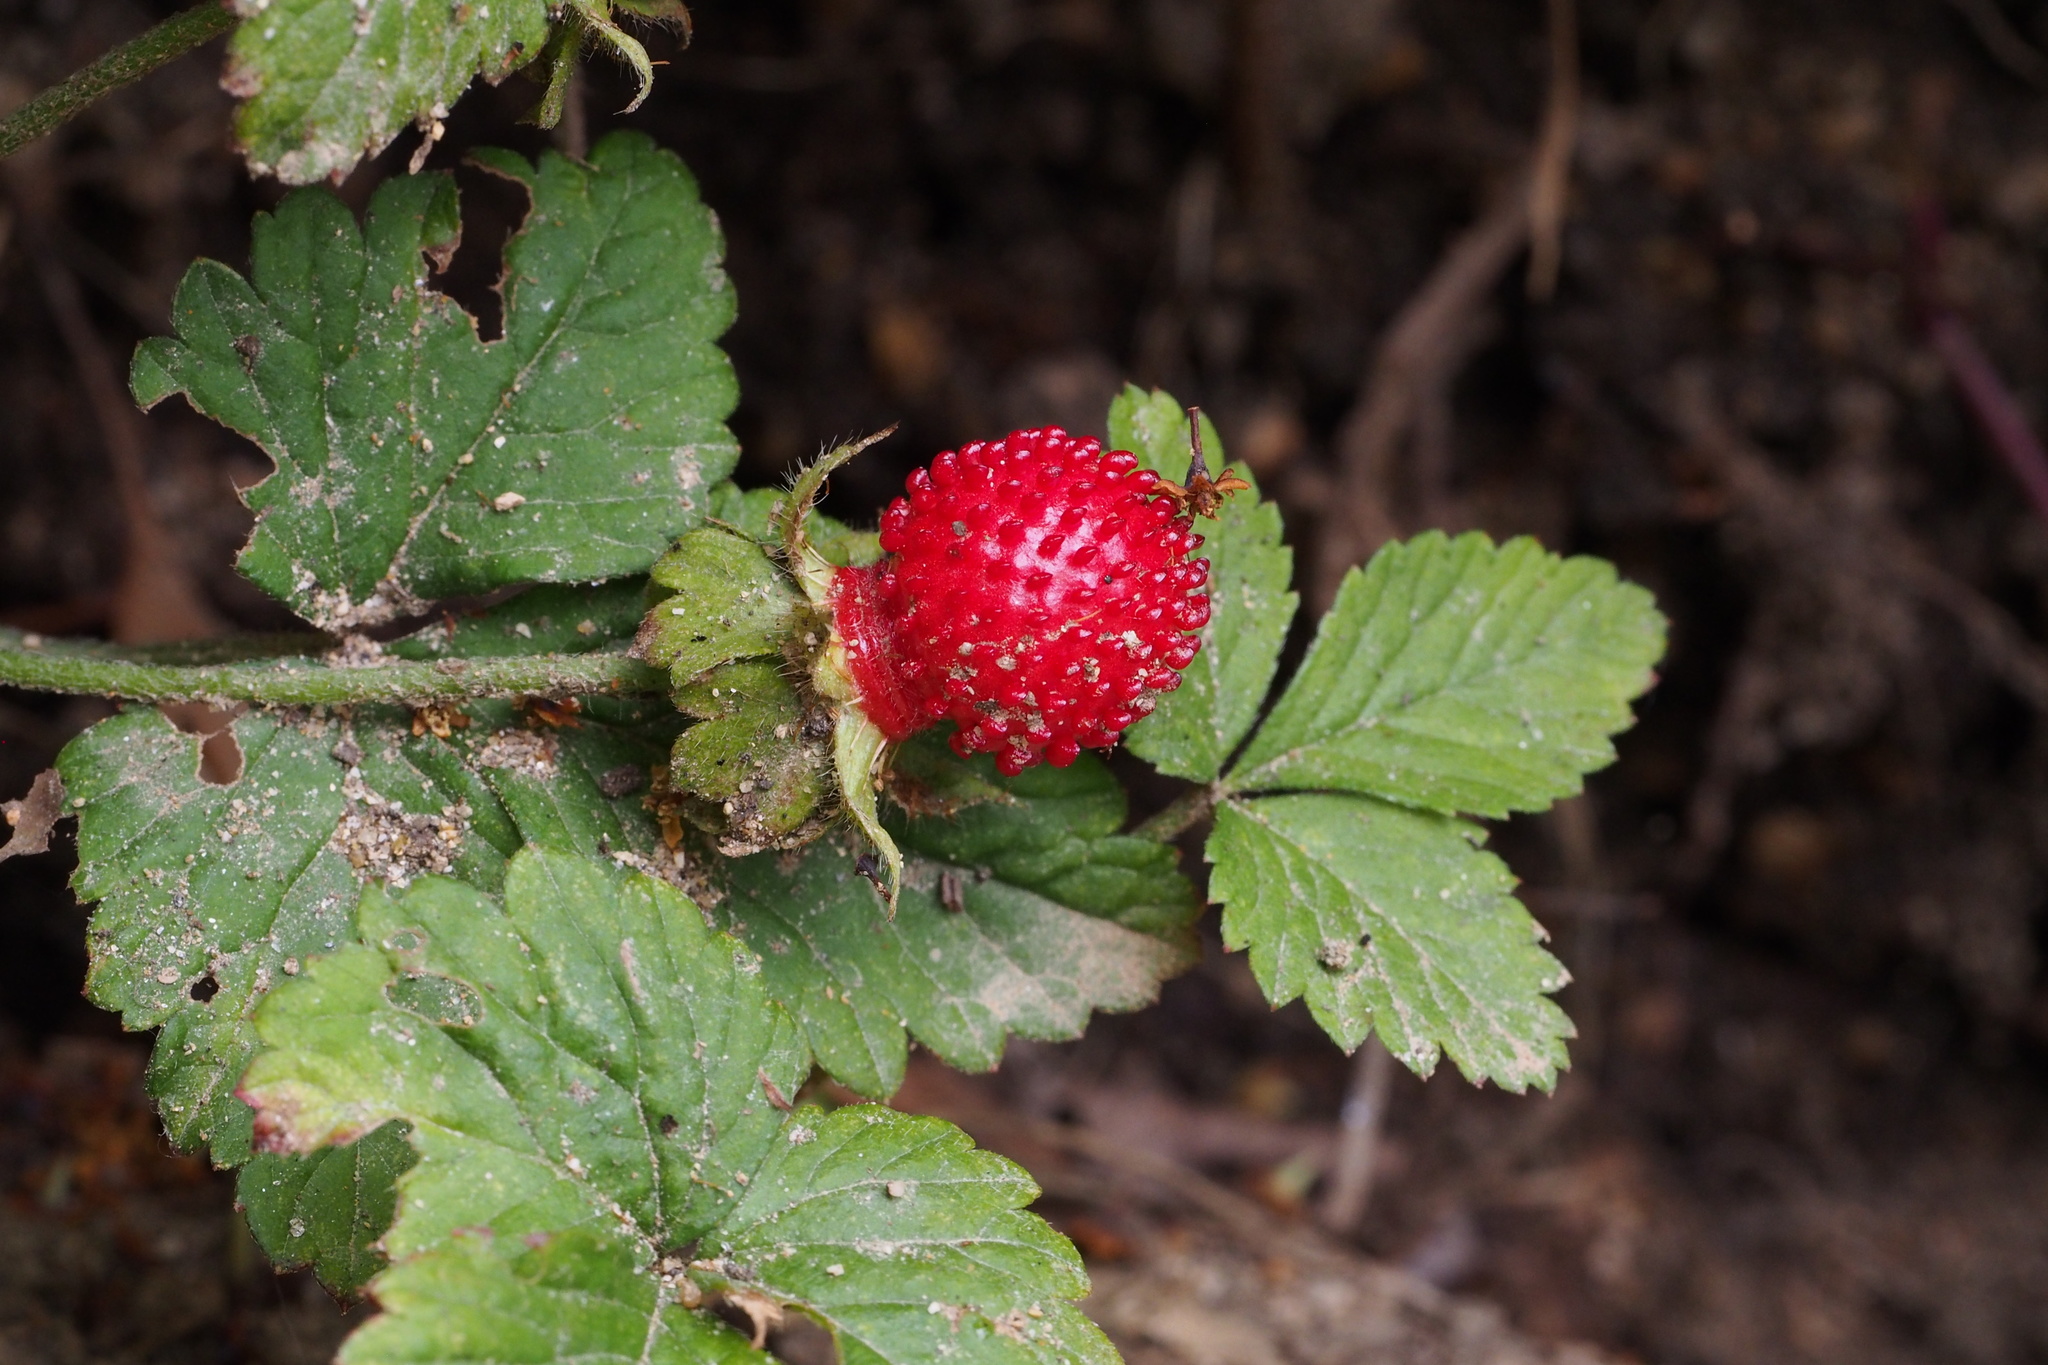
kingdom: Plantae
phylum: Tracheophyta
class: Magnoliopsida
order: Rosales
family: Rosaceae
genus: Potentilla
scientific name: Potentilla indica
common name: Yellow-flowered strawberry
